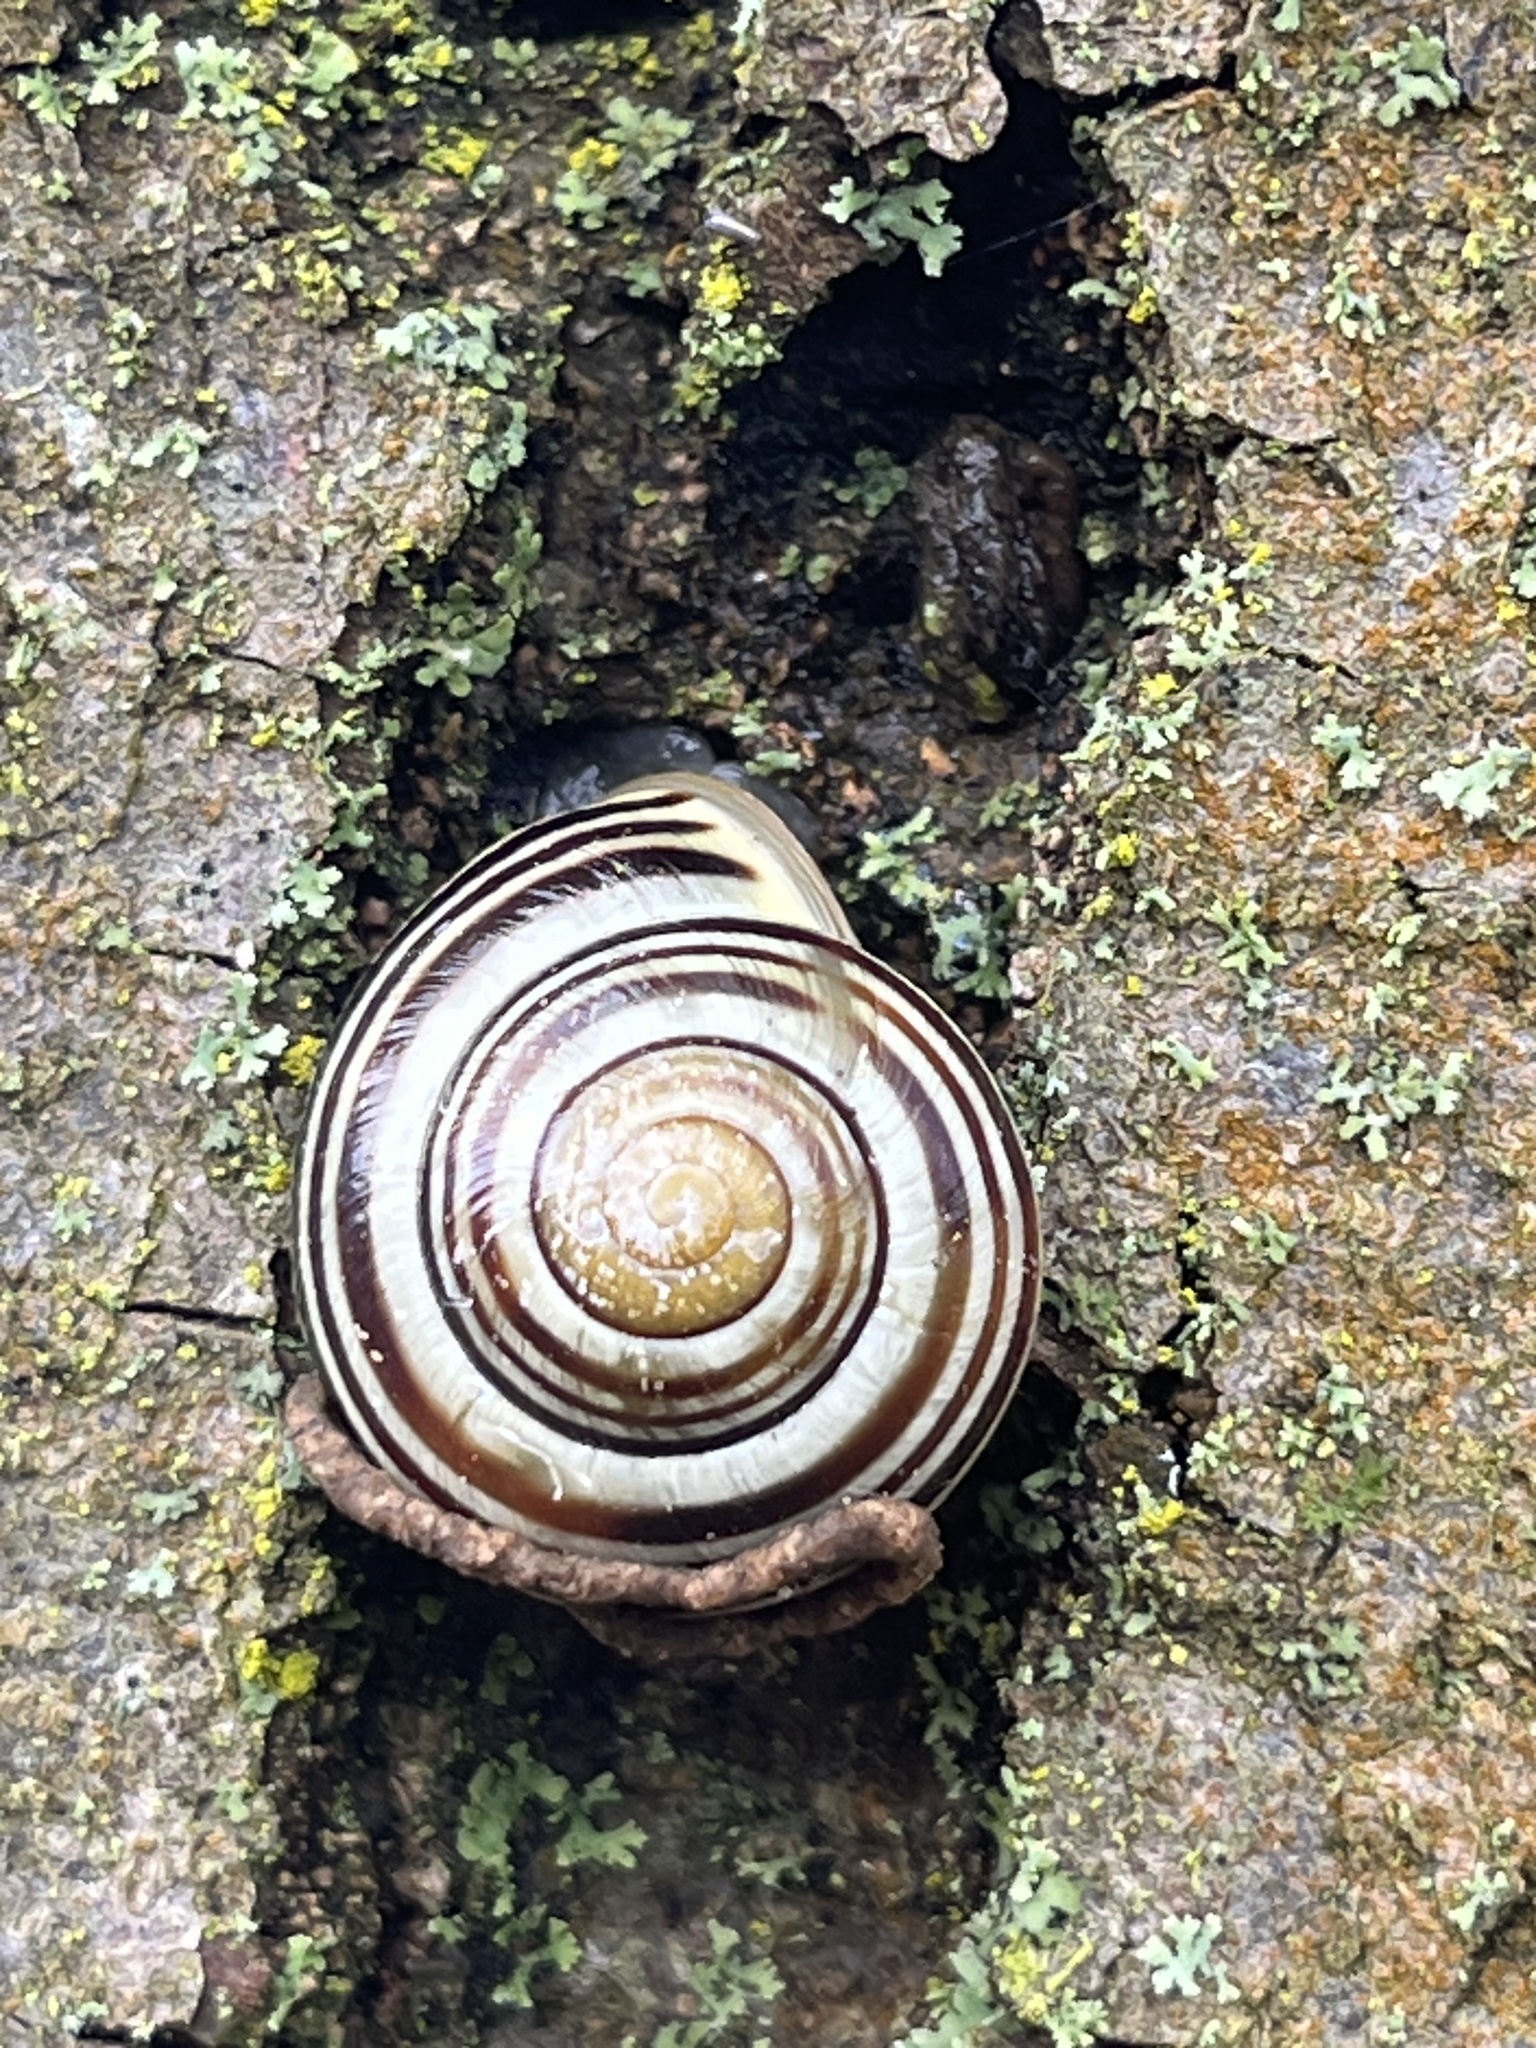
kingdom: Animalia
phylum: Mollusca
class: Gastropoda
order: Stylommatophora
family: Helicidae
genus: Cepaea
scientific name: Cepaea hortensis
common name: White-lip gardensnail
